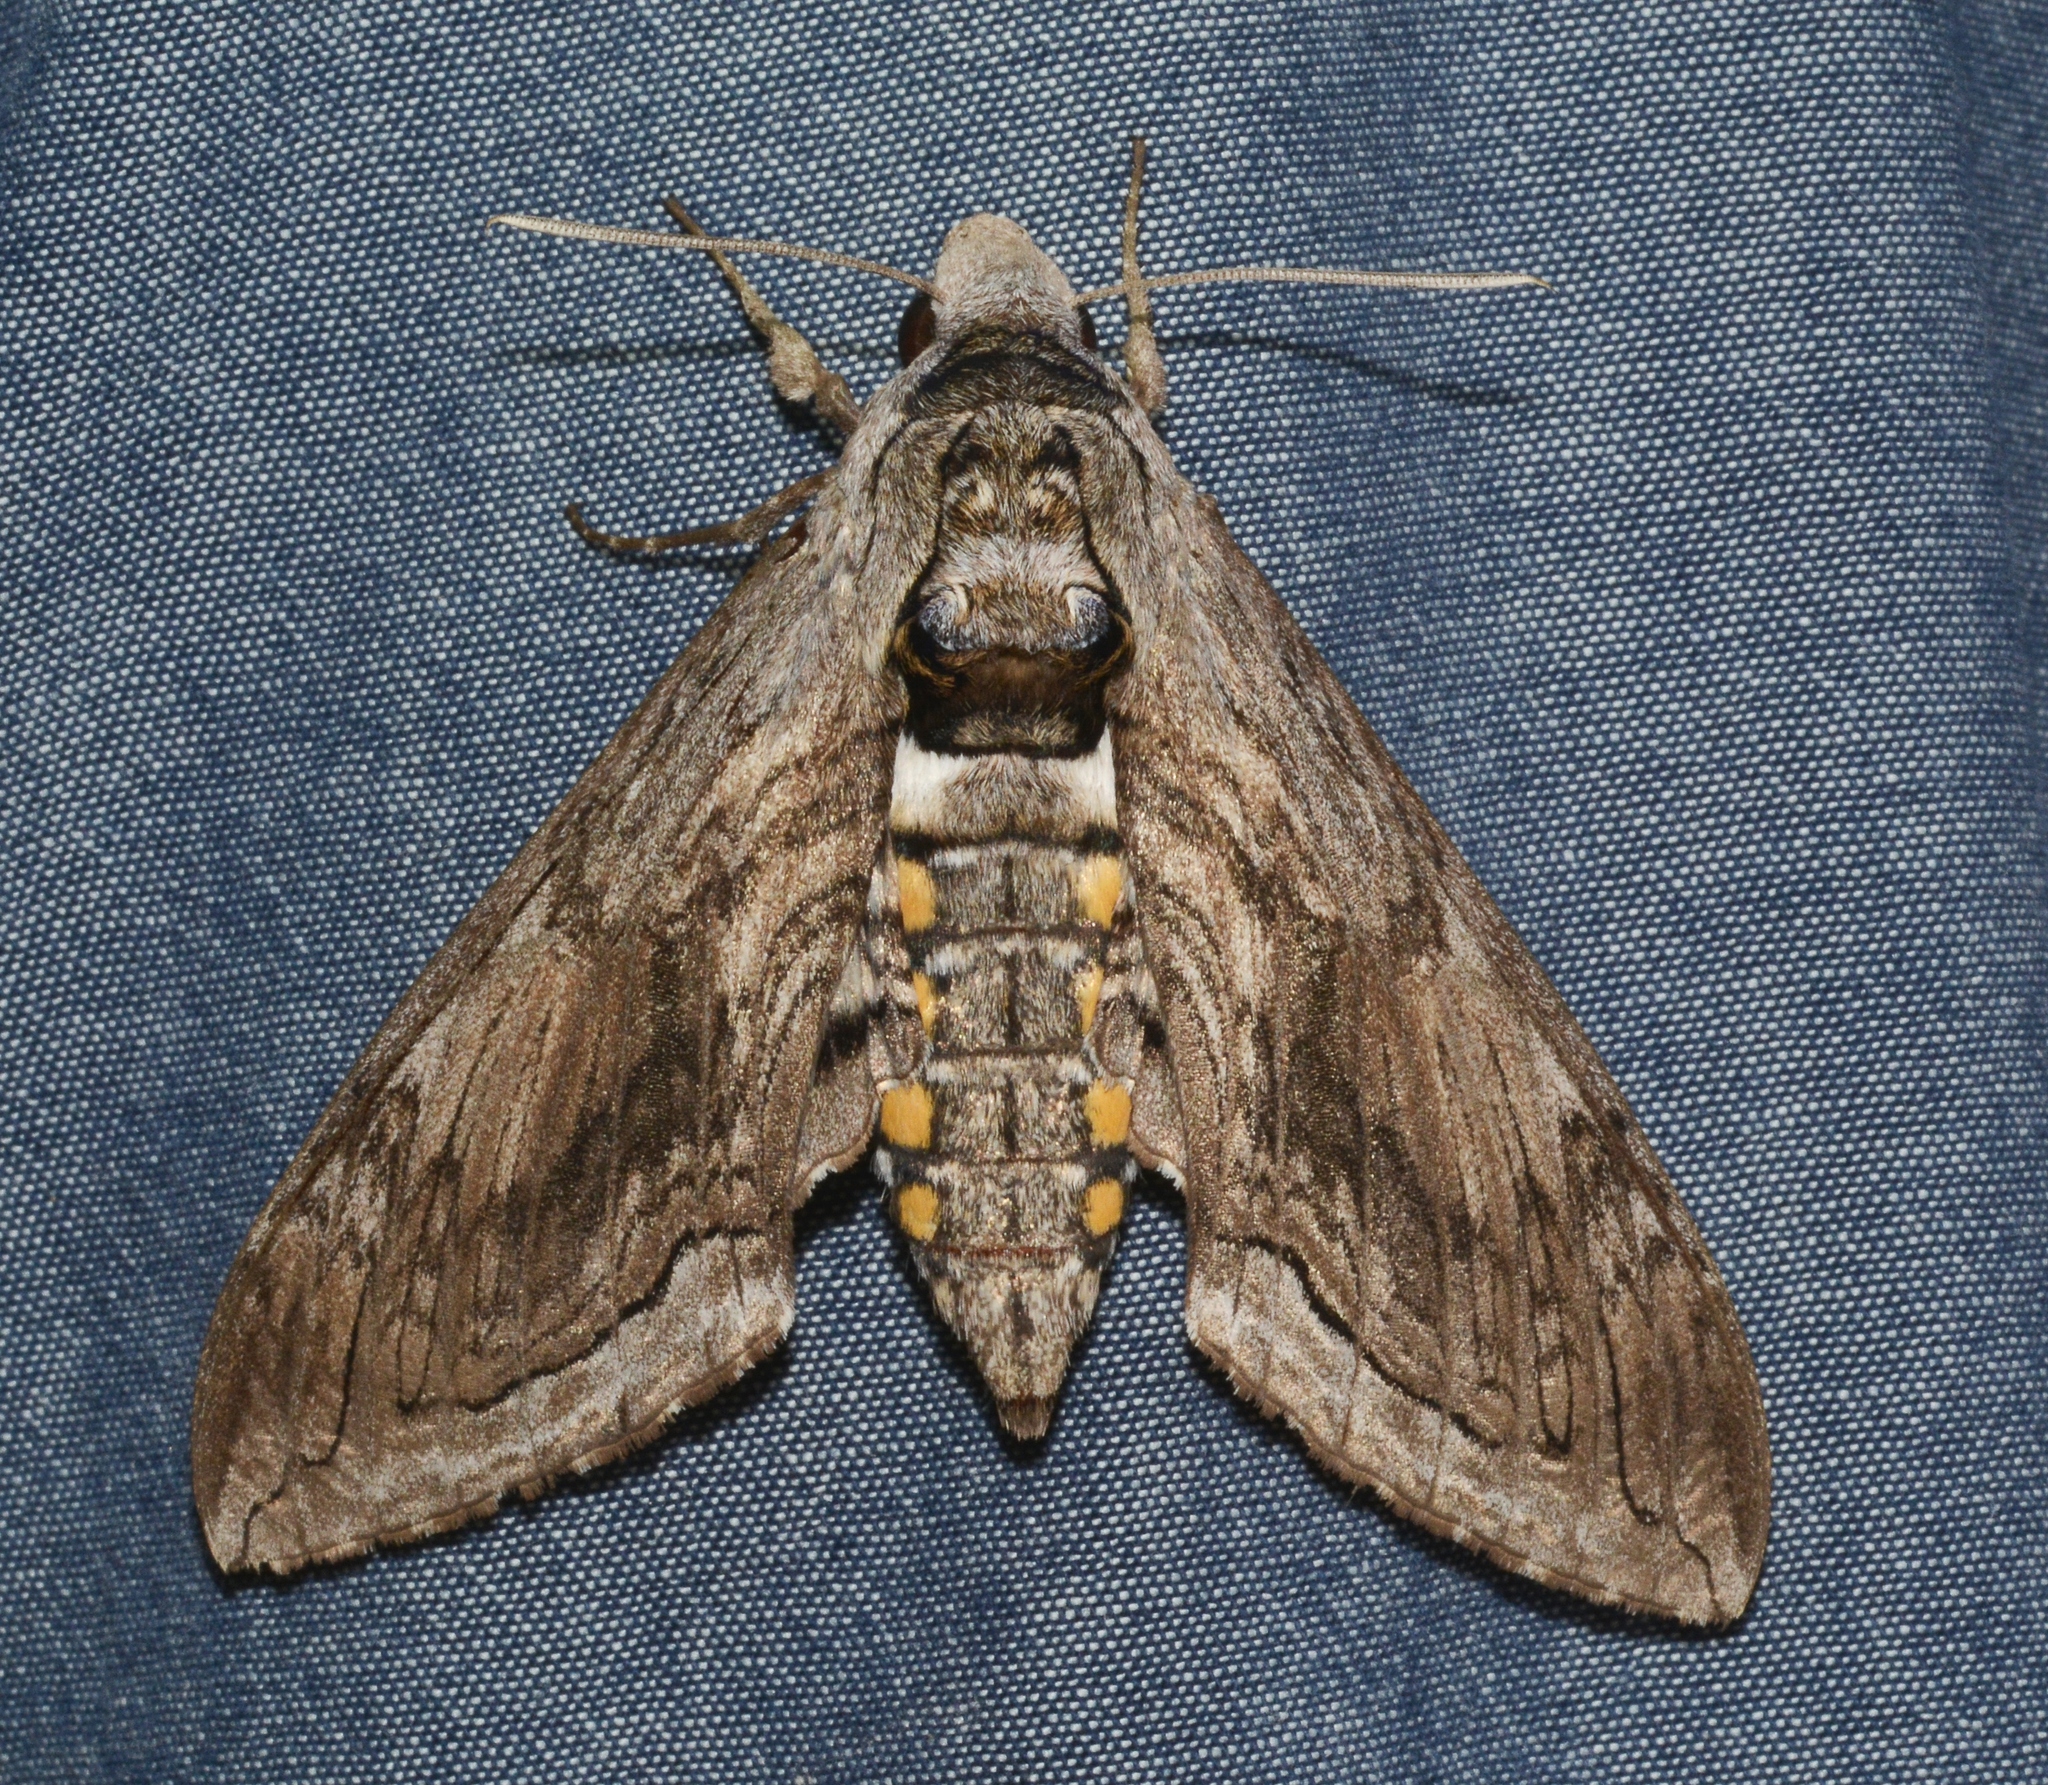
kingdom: Animalia
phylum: Arthropoda
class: Insecta
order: Lepidoptera
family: Sphingidae
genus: Manduca
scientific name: Manduca quinquemaculatus
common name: Five-spotted hawk-moth
